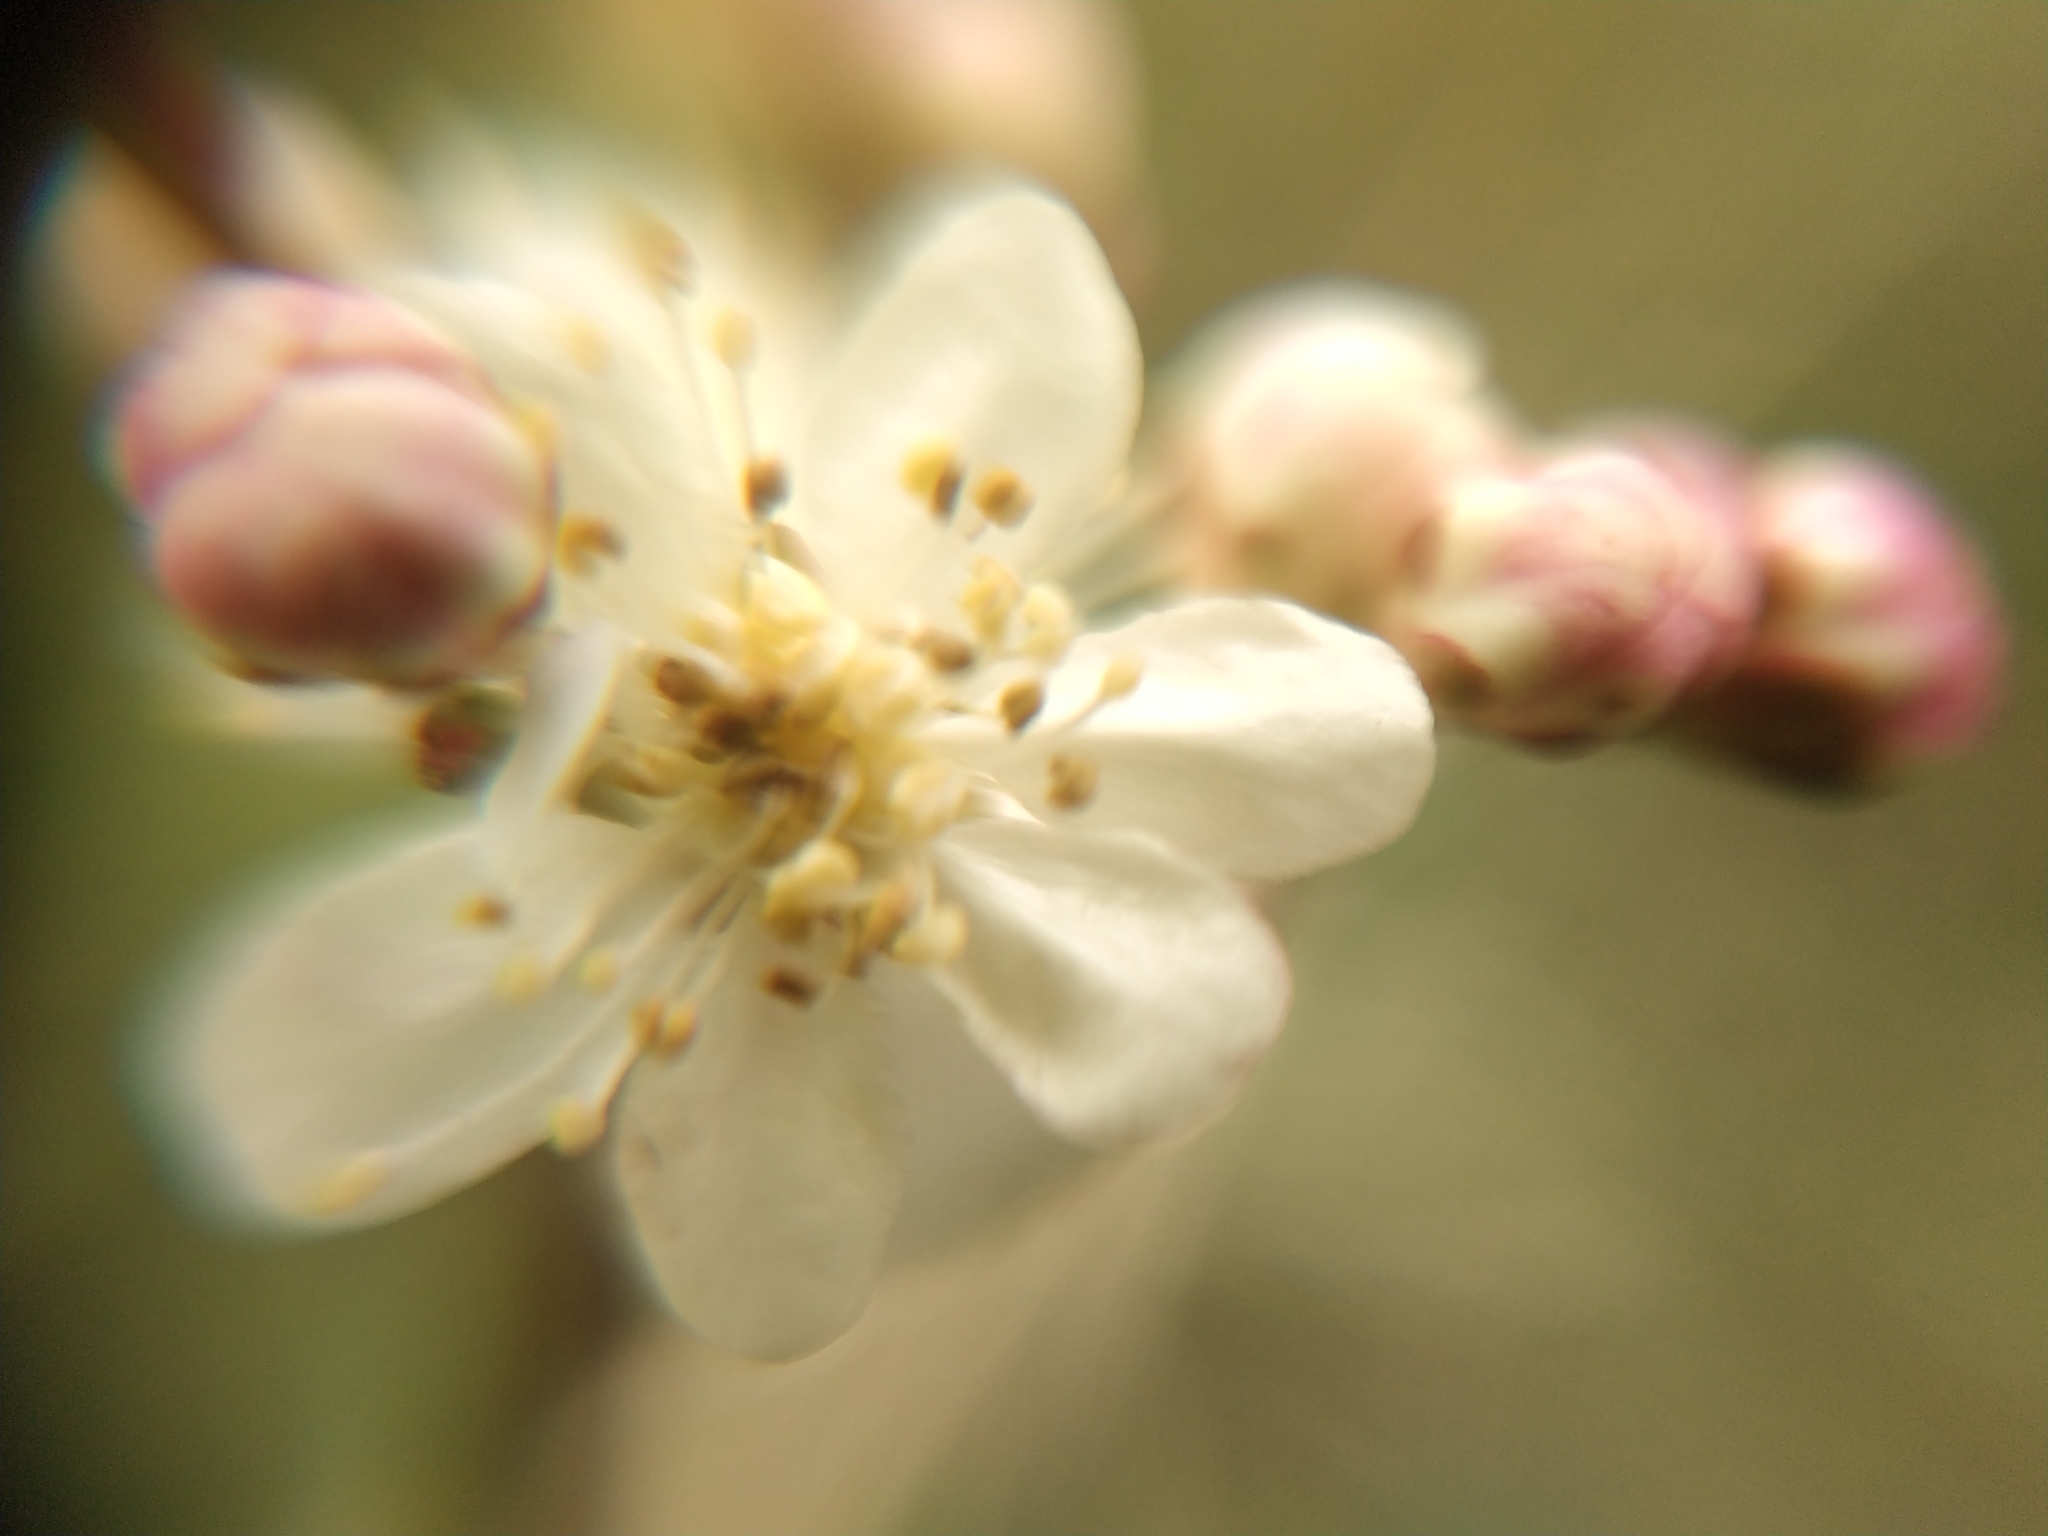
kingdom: Plantae
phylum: Tracheophyta
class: Magnoliopsida
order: Rosales
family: Rosaceae
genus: Filipendula
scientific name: Filipendula vulgaris
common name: Dropwort
